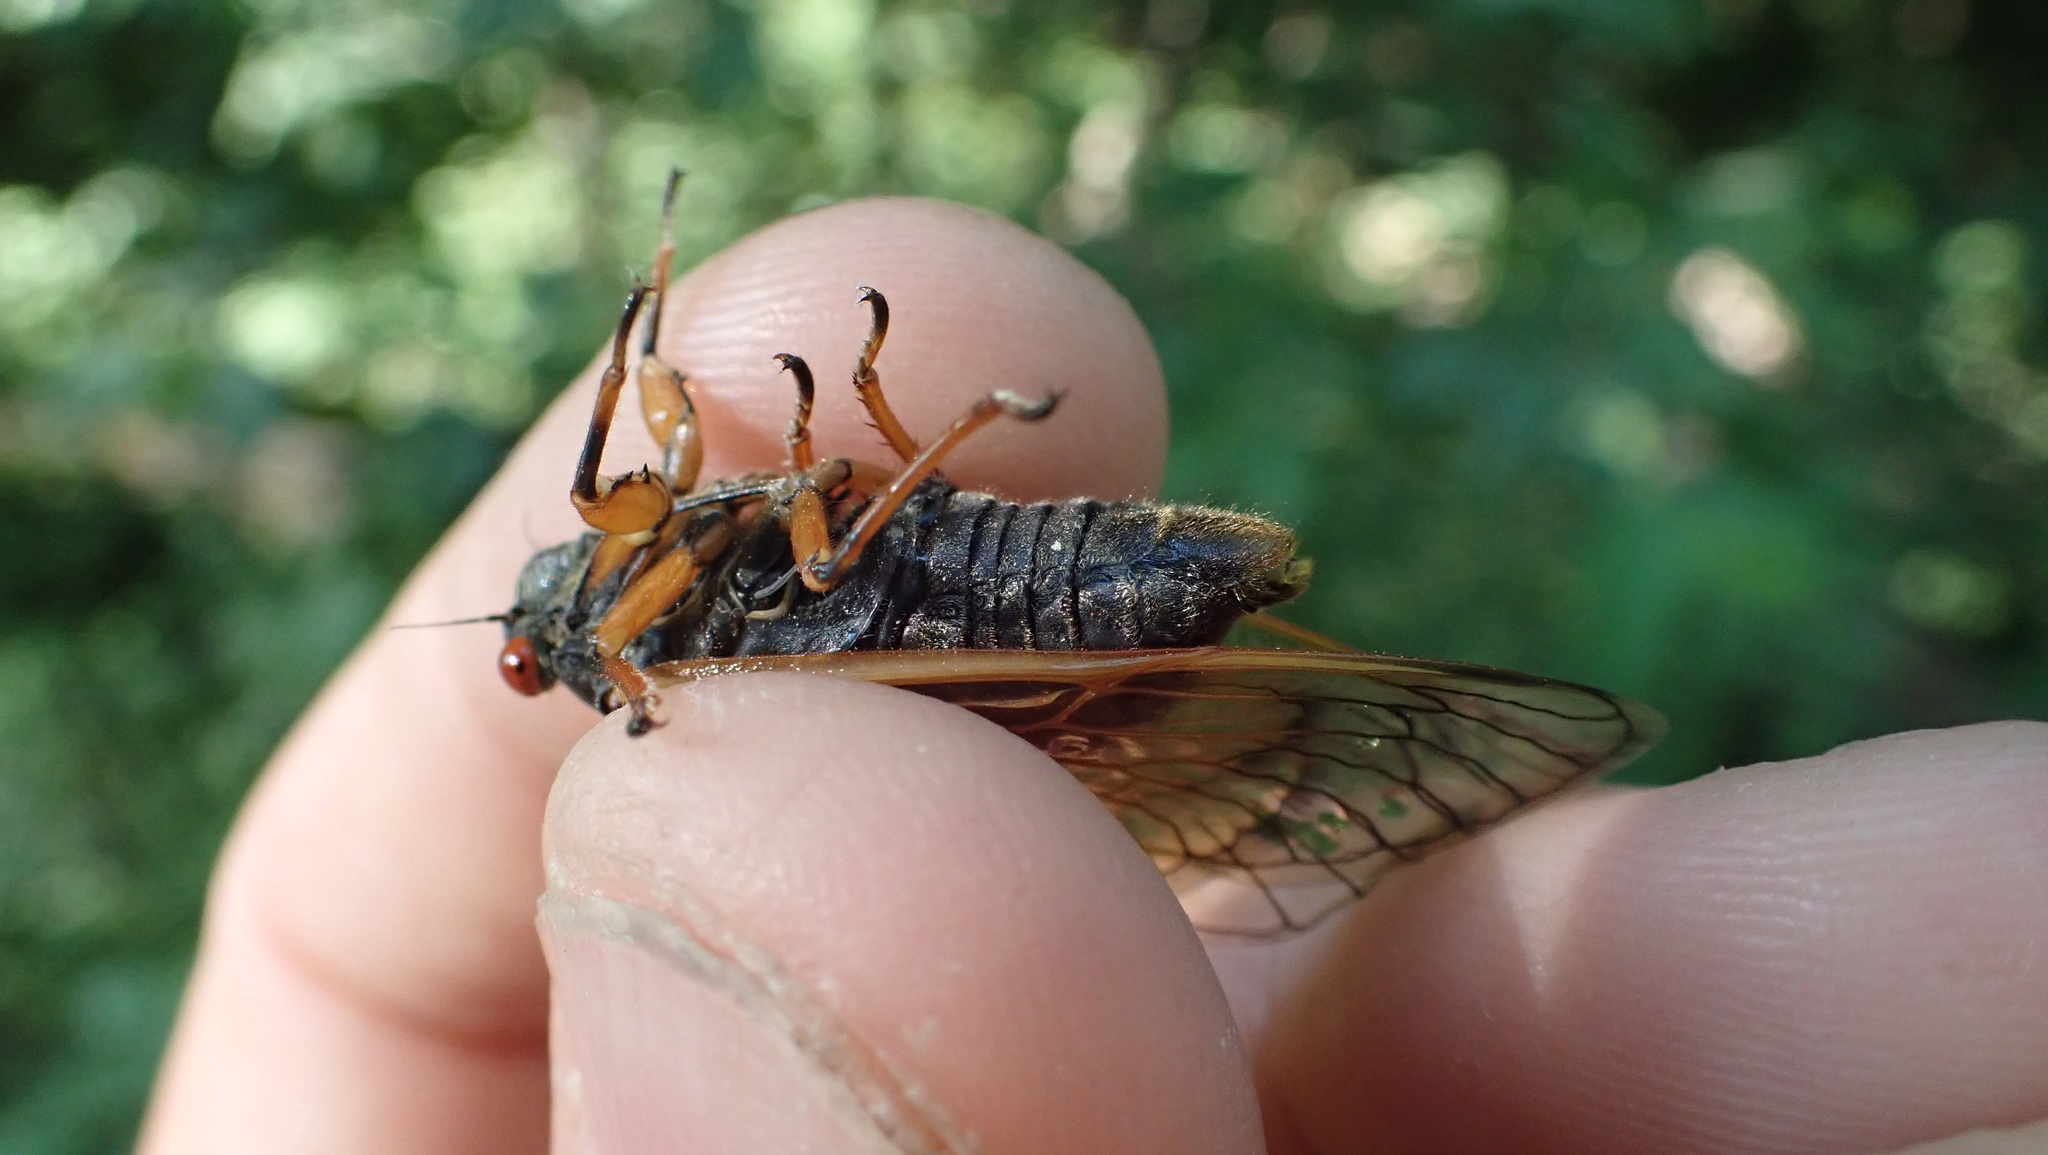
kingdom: Animalia
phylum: Arthropoda
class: Insecta
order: Hemiptera
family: Cicadidae
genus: Magicicada
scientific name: Magicicada cassini
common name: Cassin's 17-year cicada
